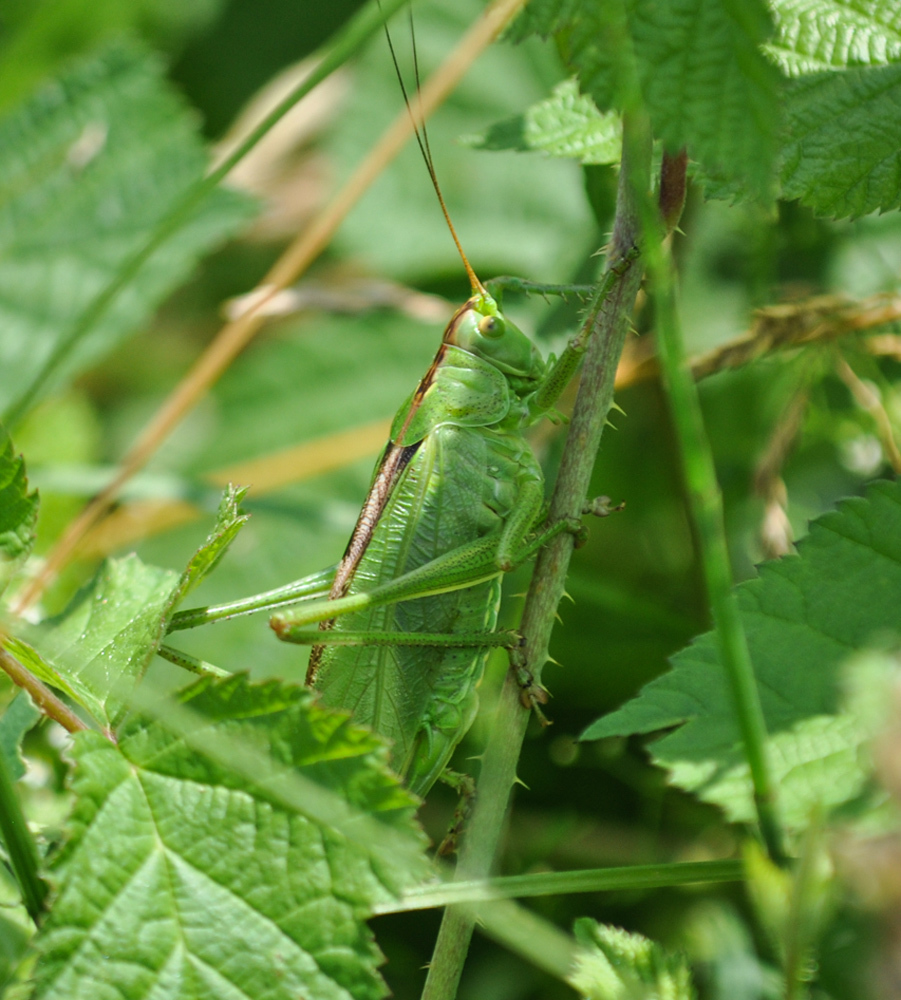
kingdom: Animalia
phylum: Arthropoda
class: Insecta
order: Orthoptera
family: Tettigoniidae
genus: Tettigonia
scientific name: Tettigonia viridissima
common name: Great green bush-cricket
